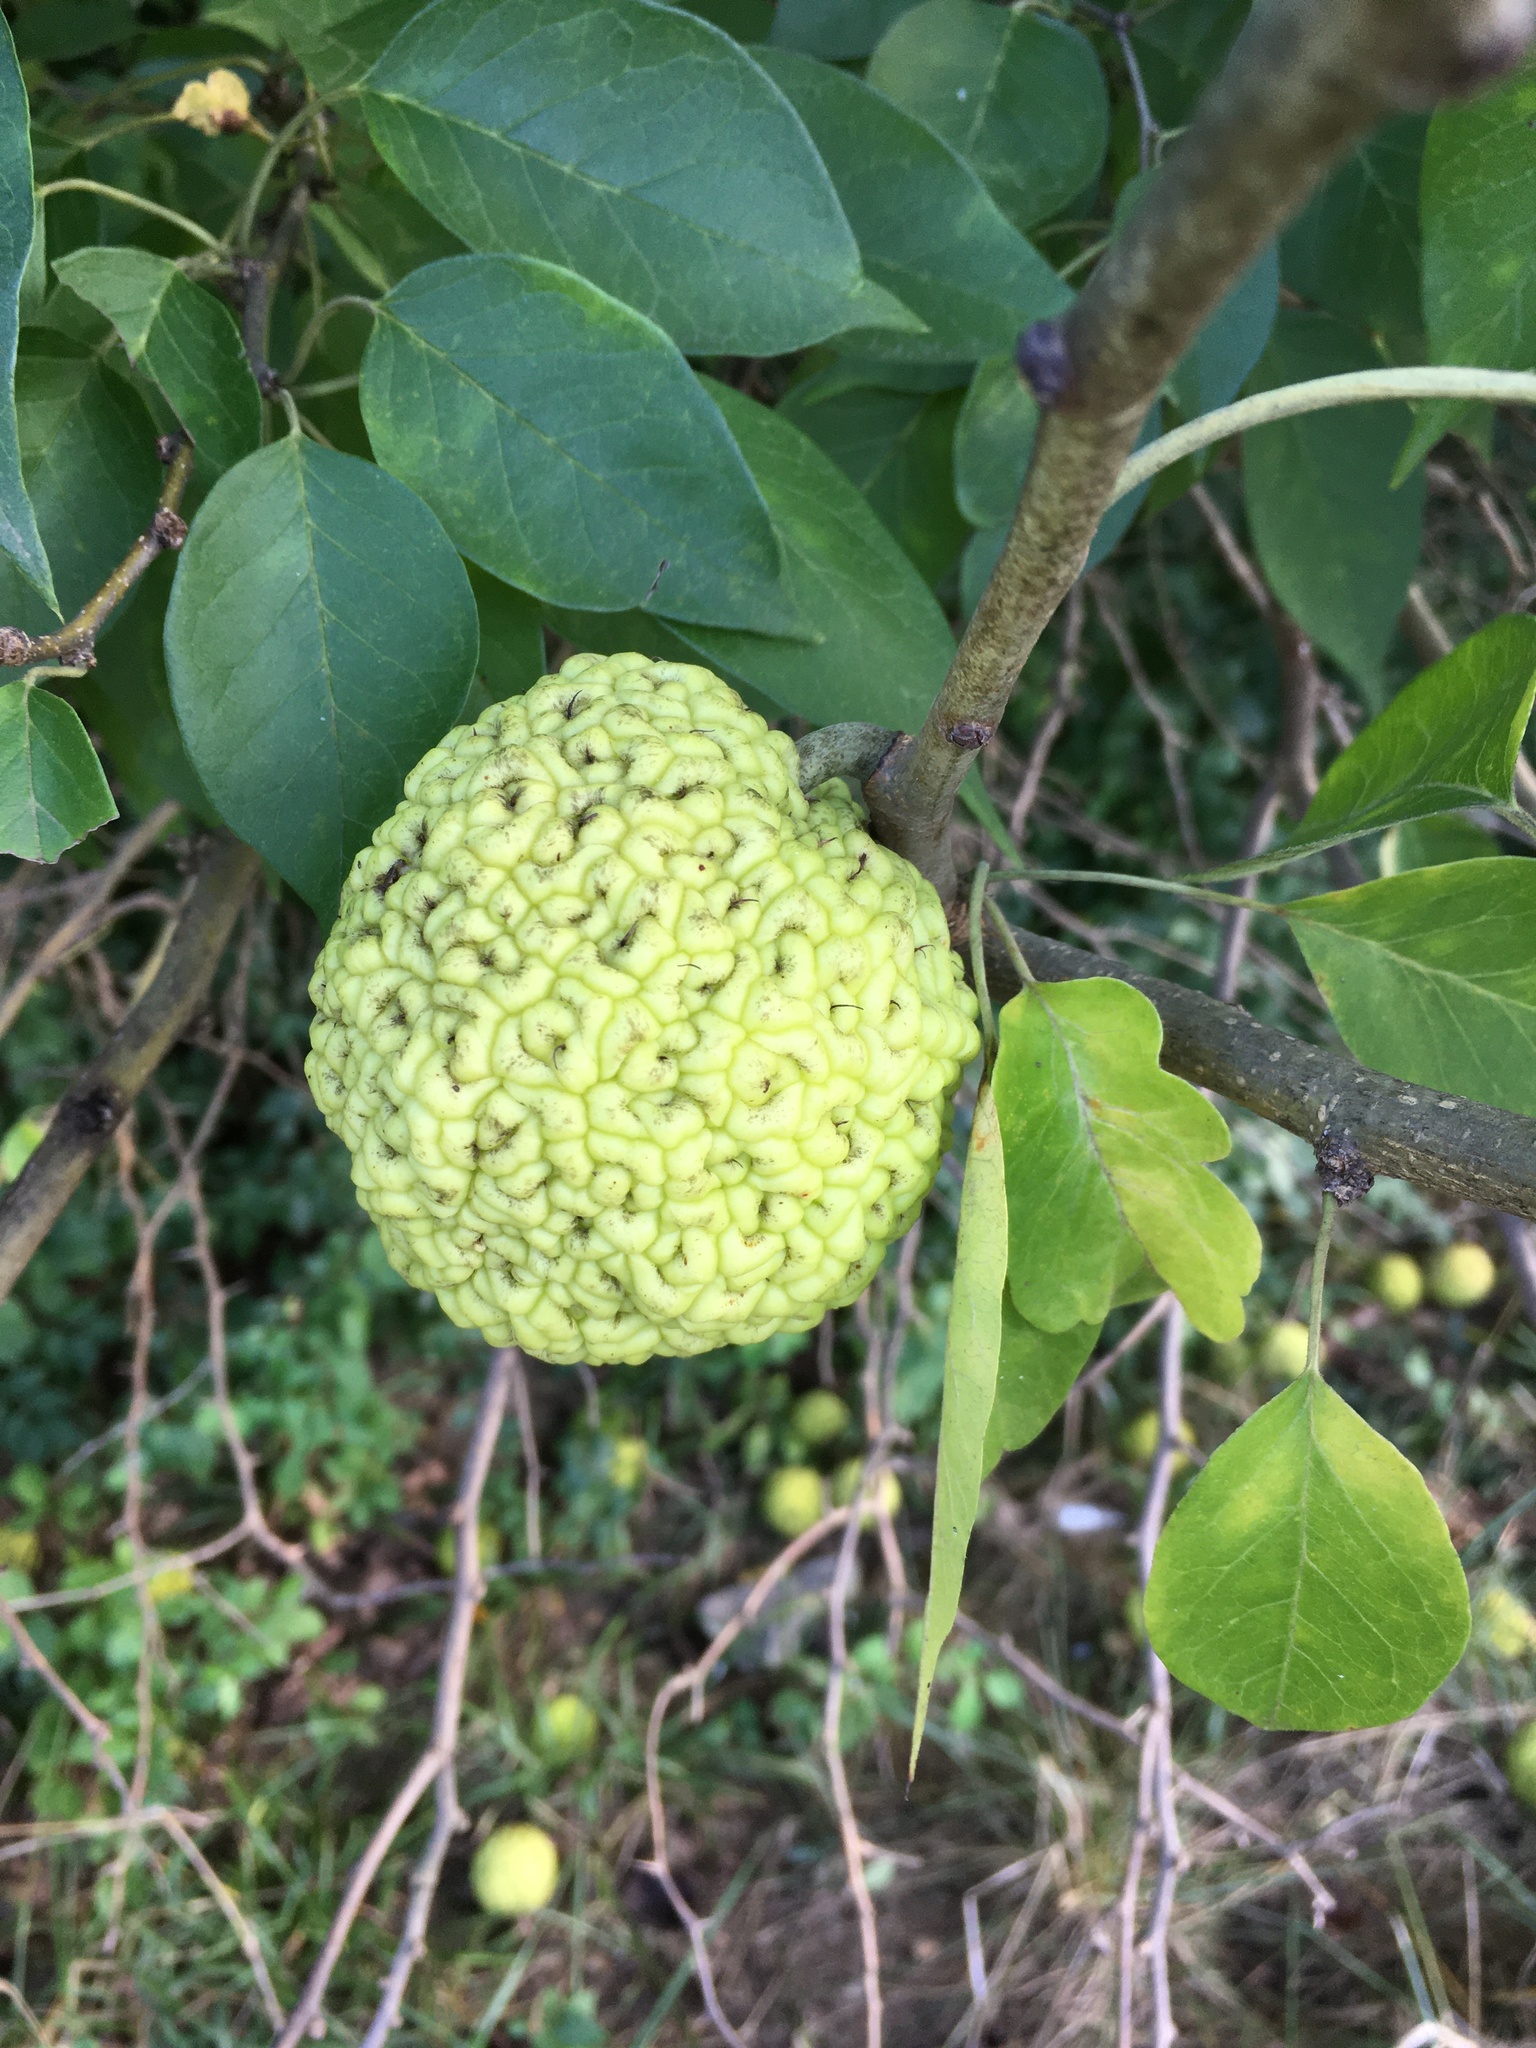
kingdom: Plantae
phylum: Tracheophyta
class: Magnoliopsida
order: Rosales
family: Moraceae
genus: Maclura
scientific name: Maclura pomifera
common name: Osage-orange
